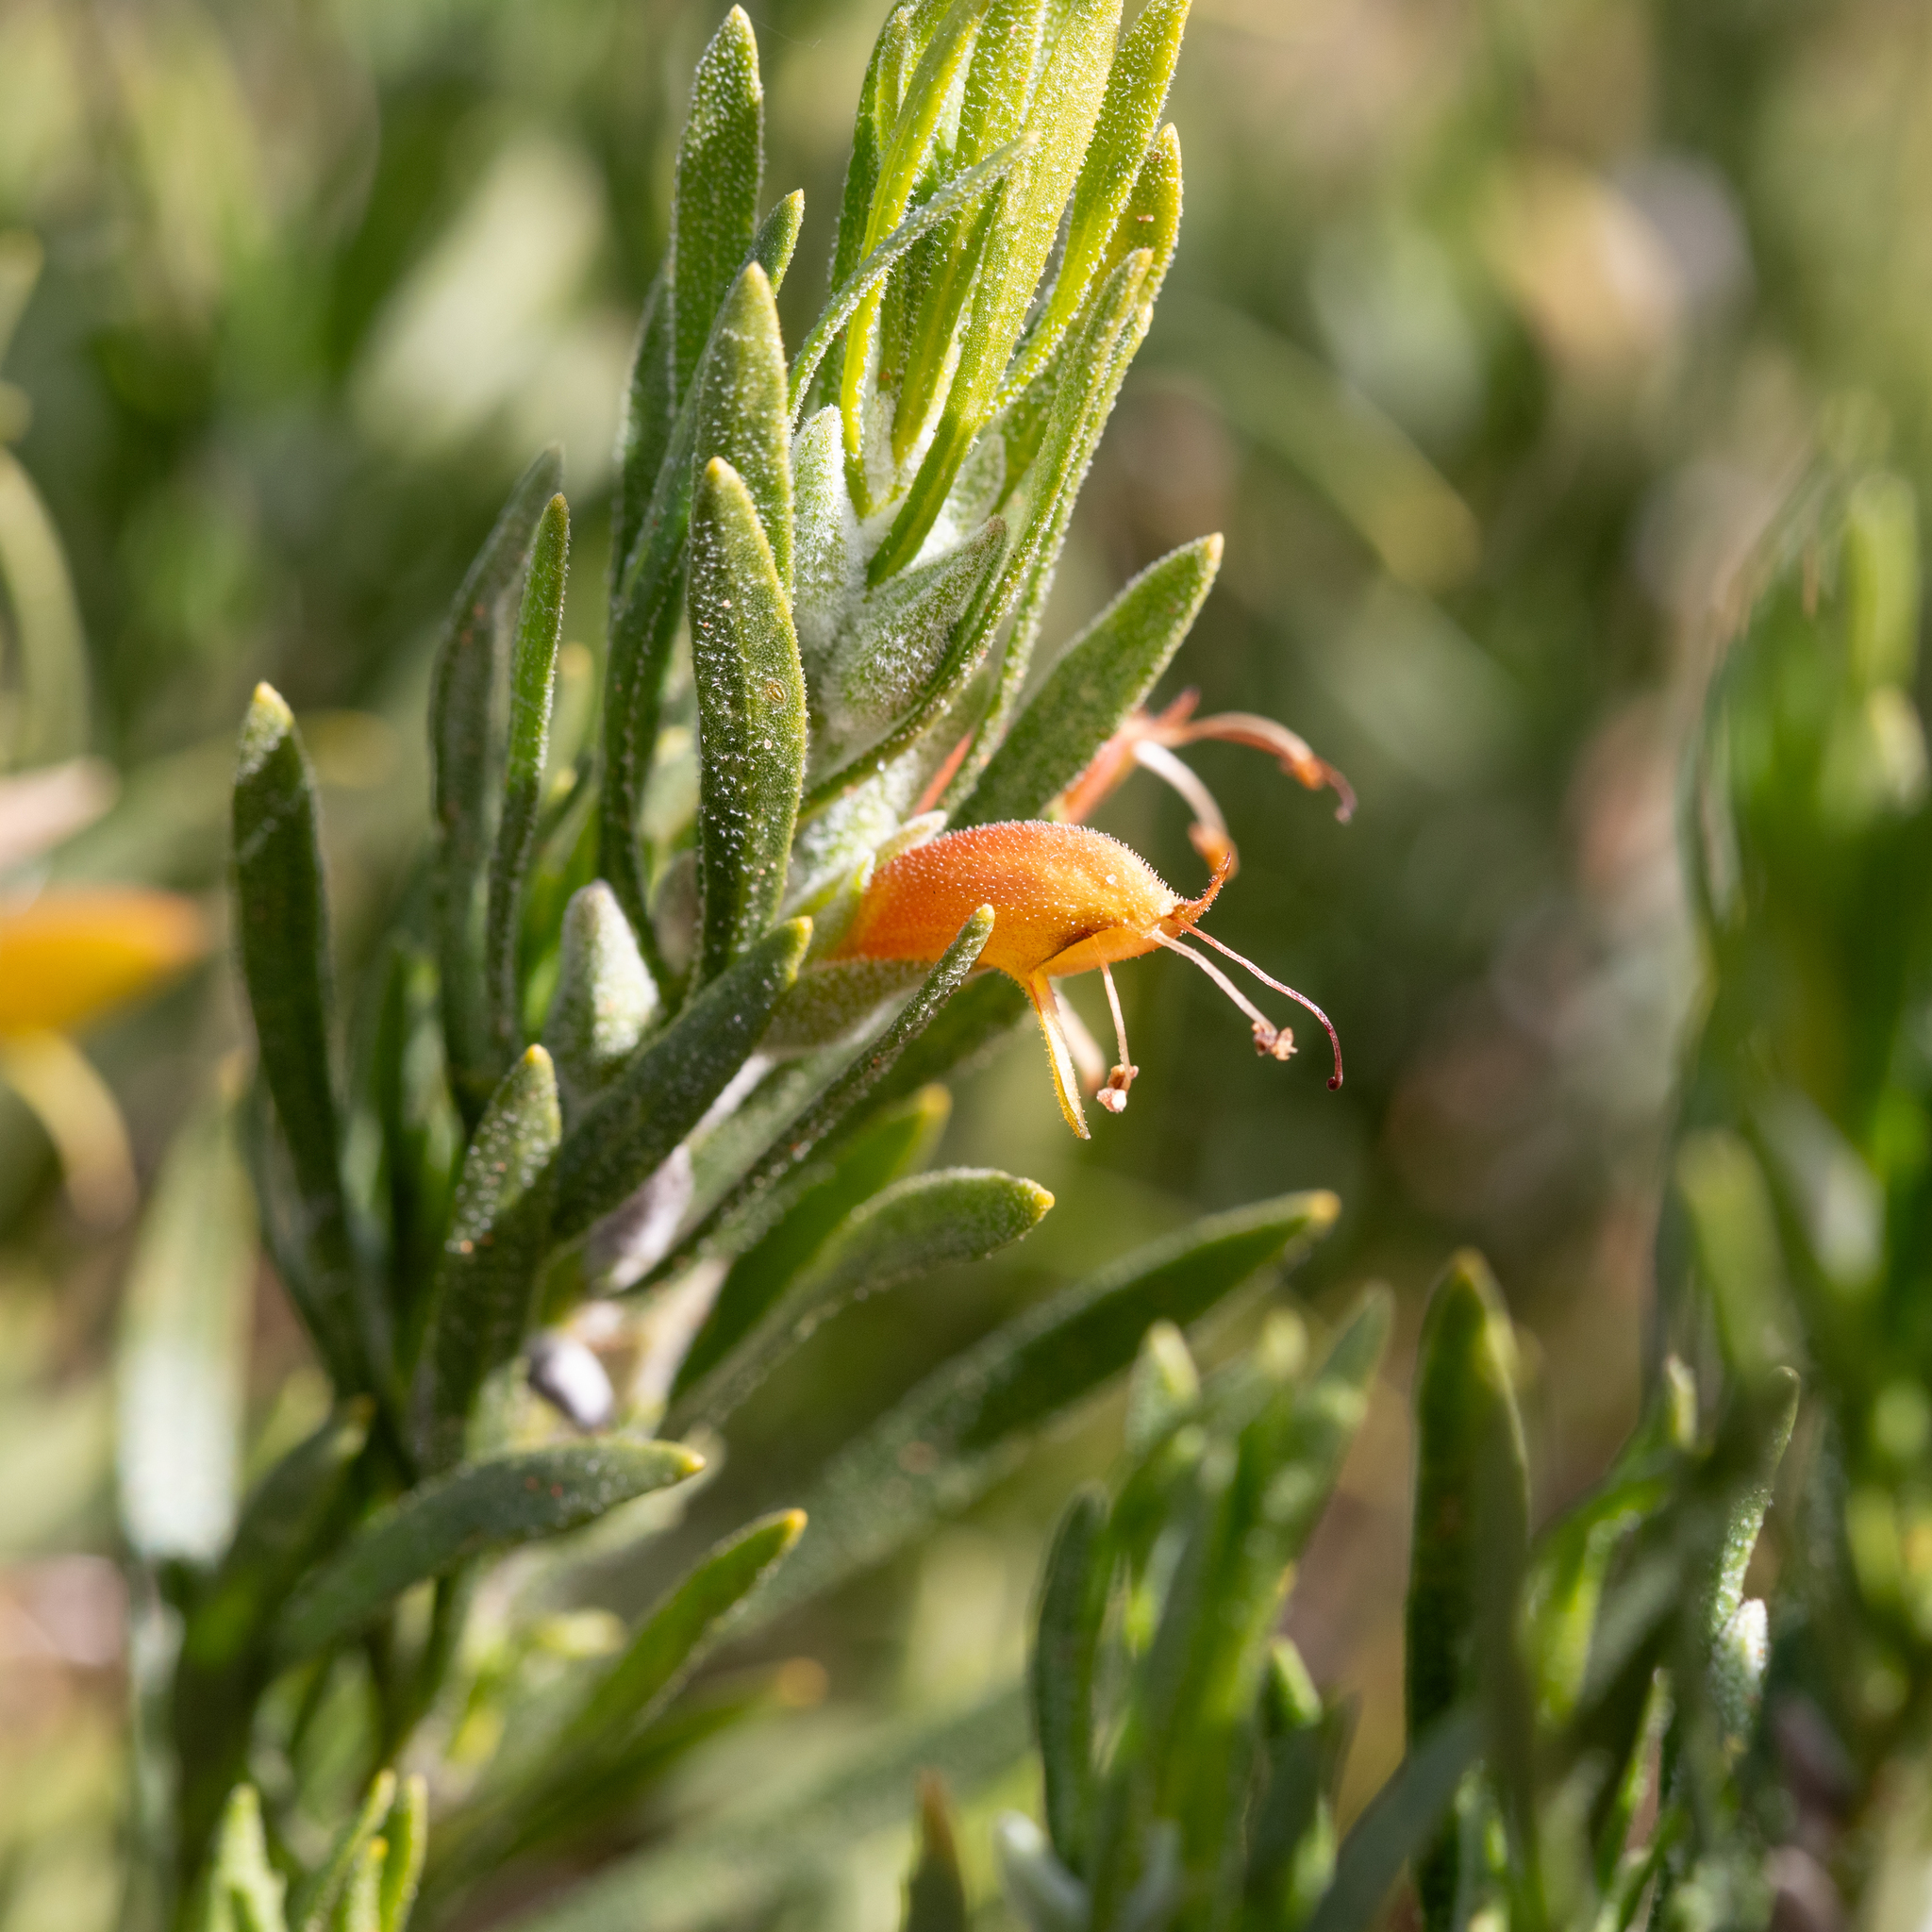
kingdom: Plantae
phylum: Tracheophyta
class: Magnoliopsida
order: Lamiales
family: Scrophulariaceae
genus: Eremophila
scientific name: Eremophila glabra
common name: Black-fuchsia
